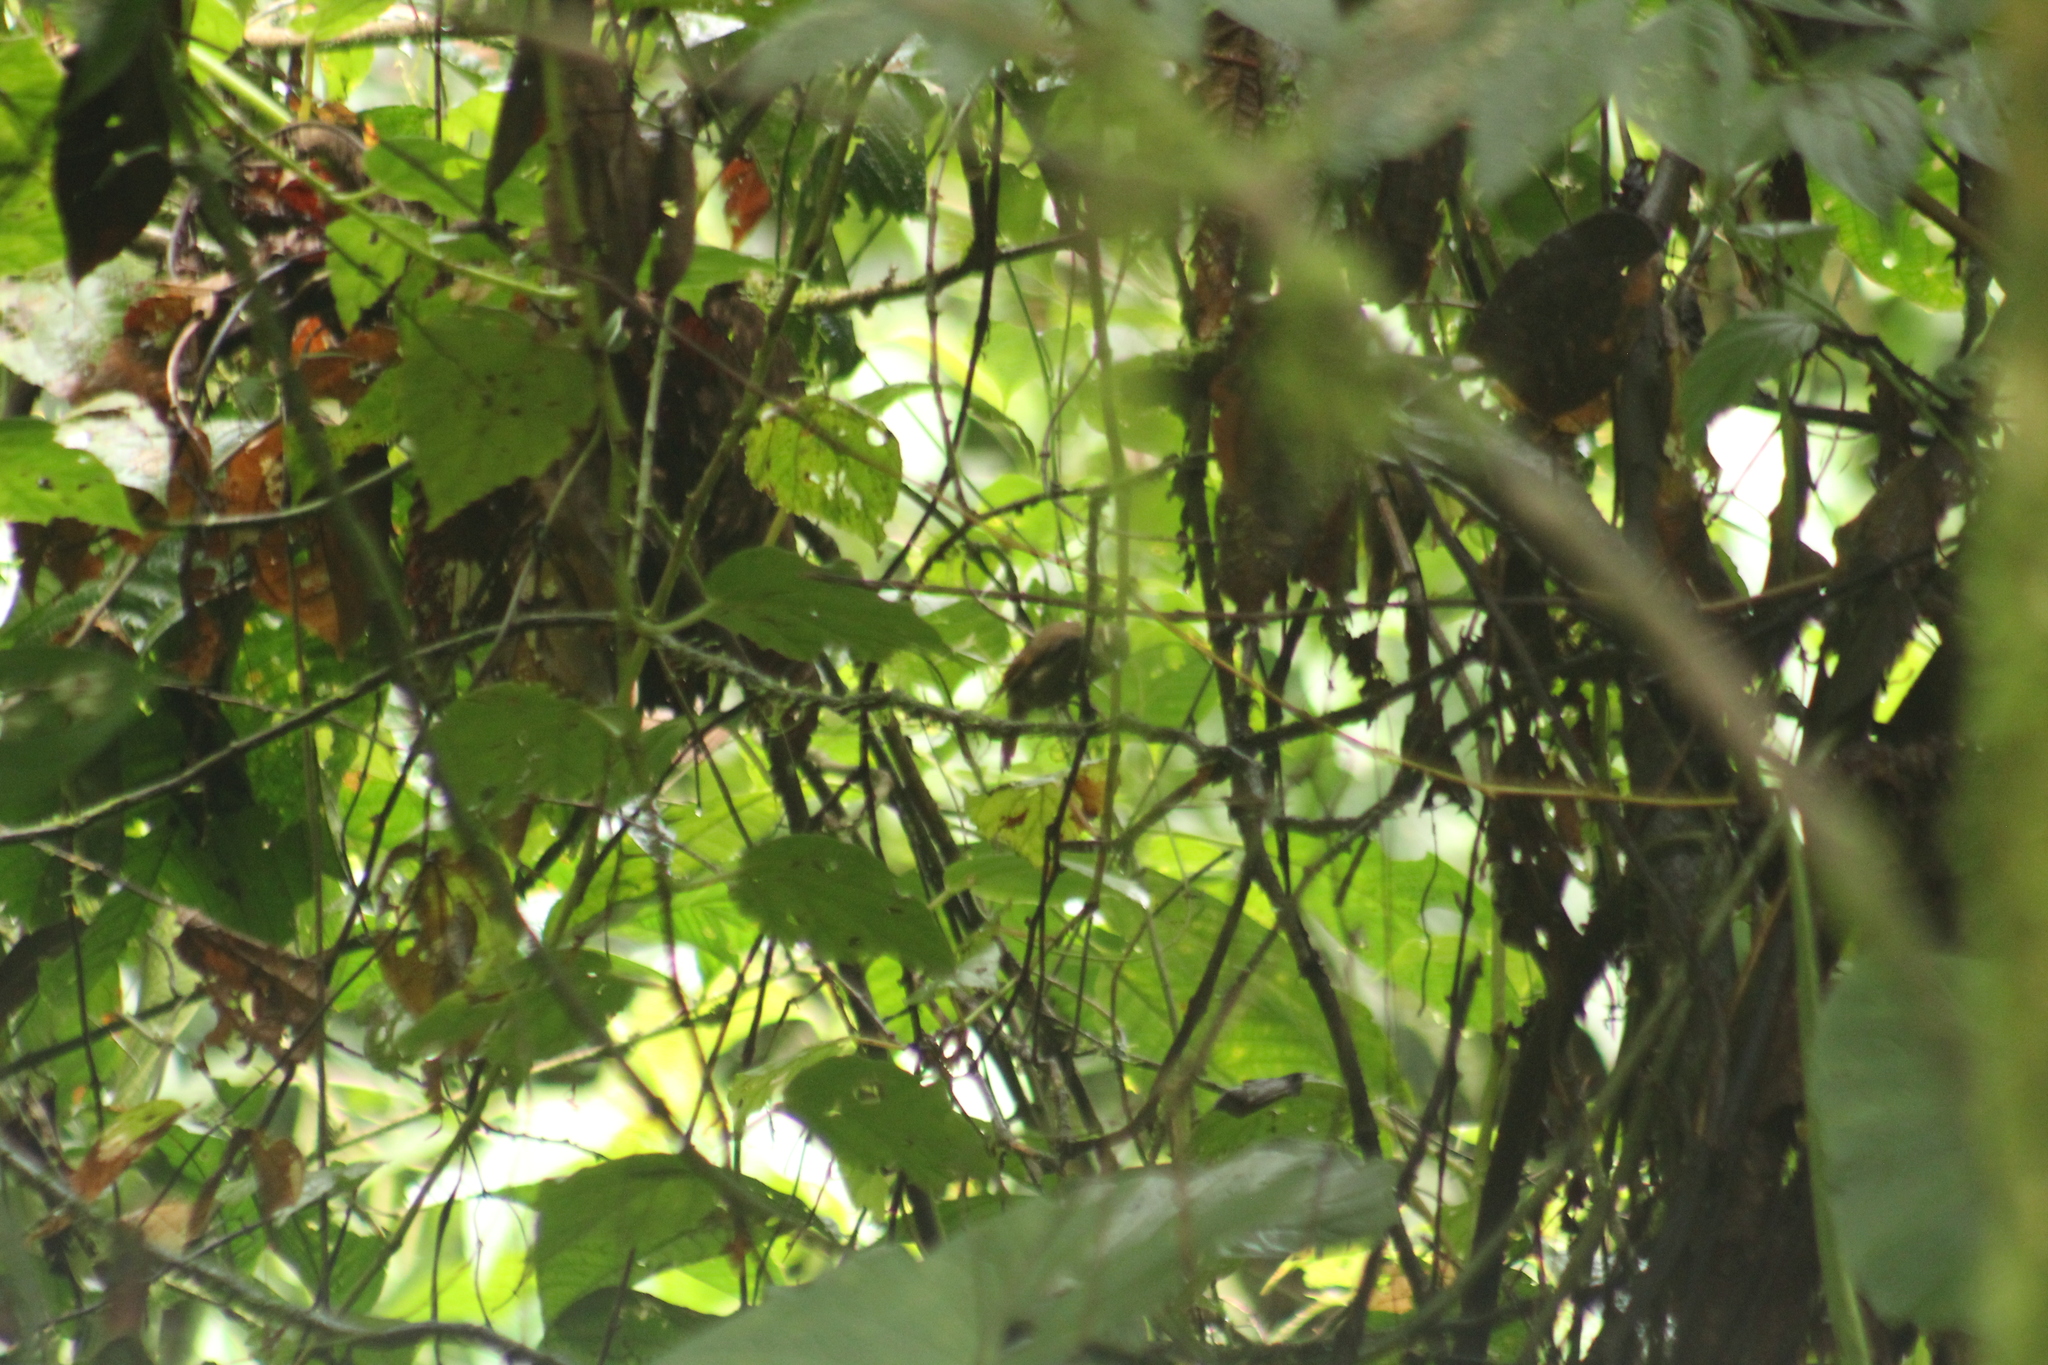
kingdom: Animalia
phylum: Chordata
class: Aves
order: Passeriformes
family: Furnariidae
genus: Xenops
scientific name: Xenops minutus
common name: Plain xenops
